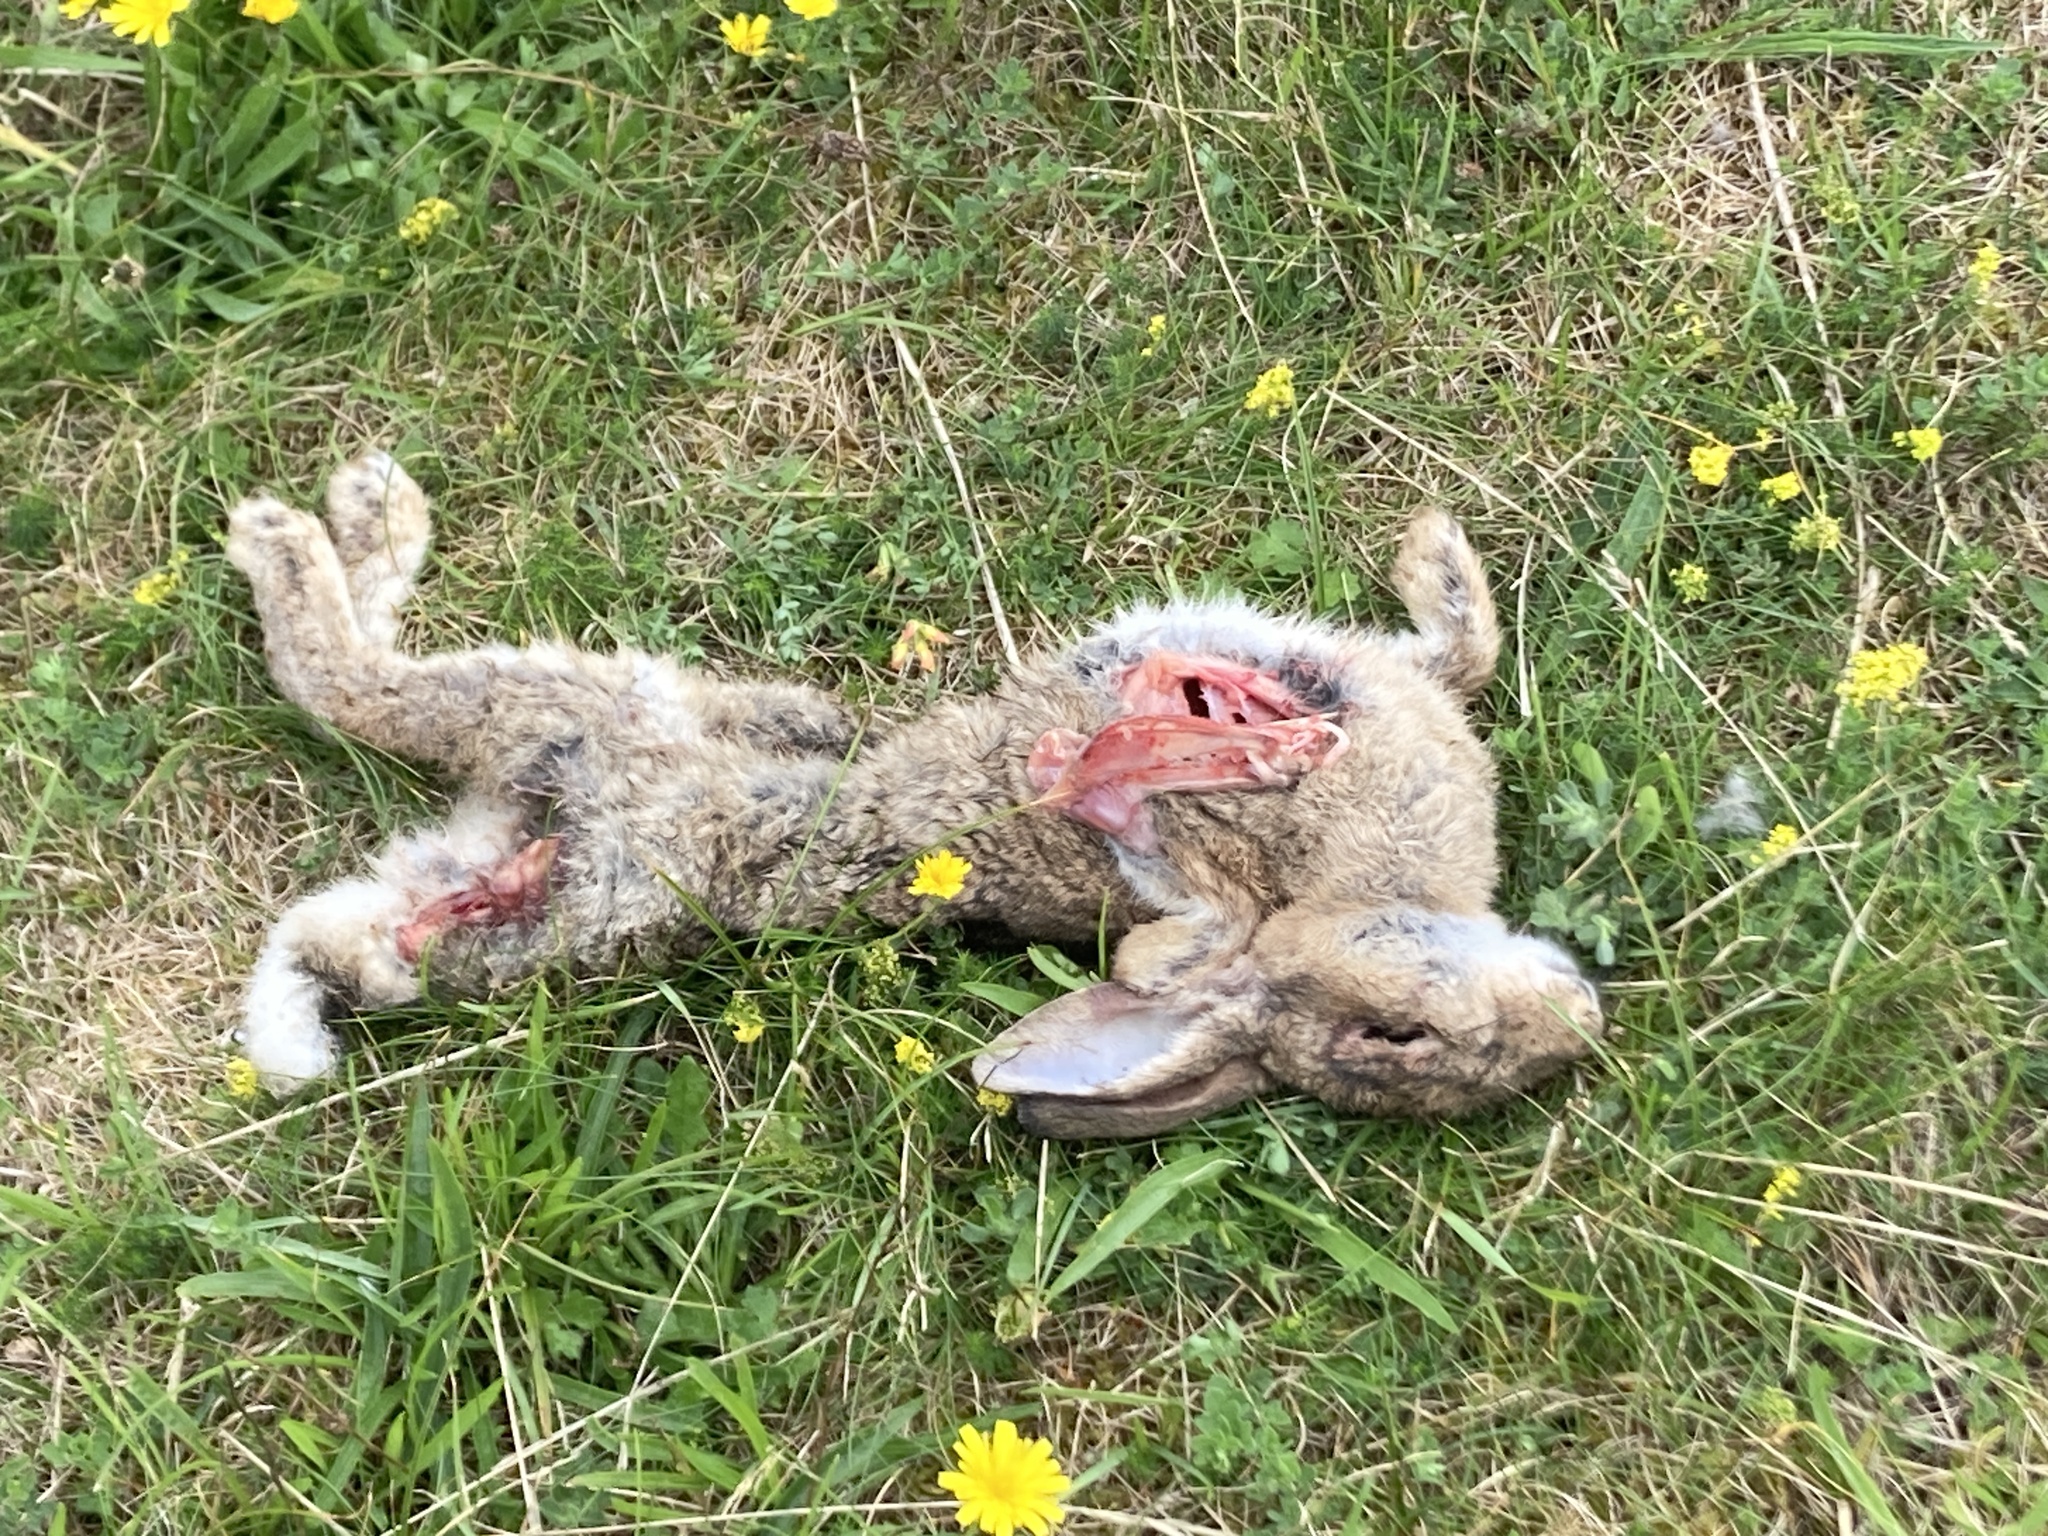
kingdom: Animalia
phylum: Chordata
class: Mammalia
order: Lagomorpha
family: Leporidae
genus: Oryctolagus
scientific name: Oryctolagus cuniculus
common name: European rabbit
